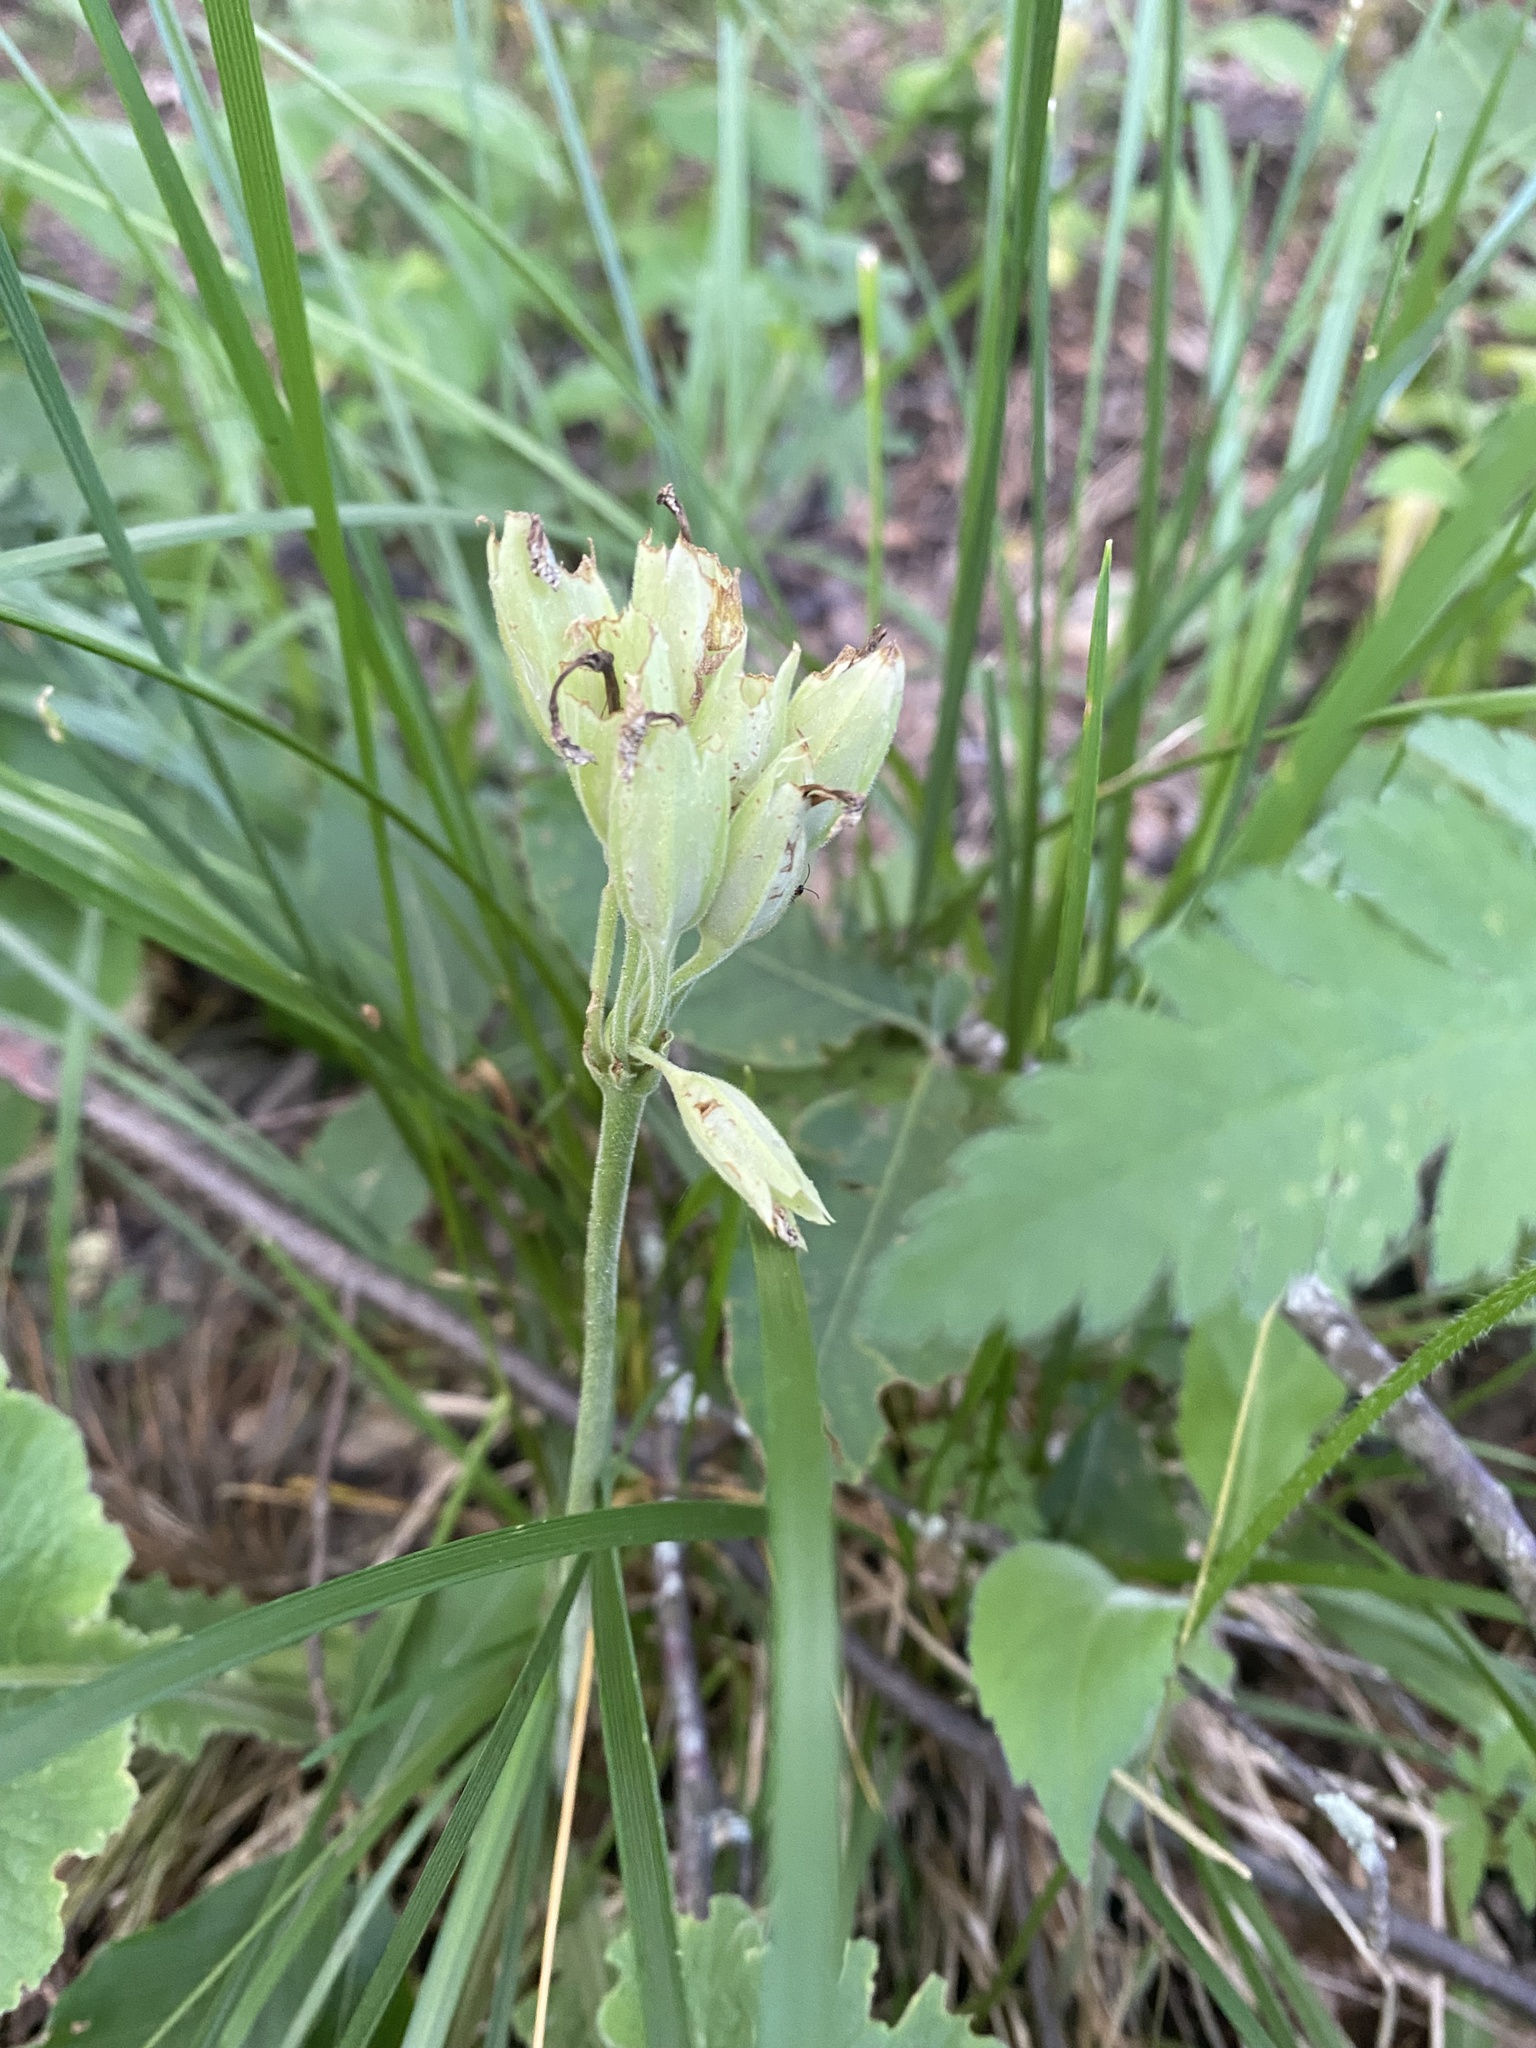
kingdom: Plantae
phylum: Tracheophyta
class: Magnoliopsida
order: Ericales
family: Primulaceae
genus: Primula
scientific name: Primula veris
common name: Cowslip
